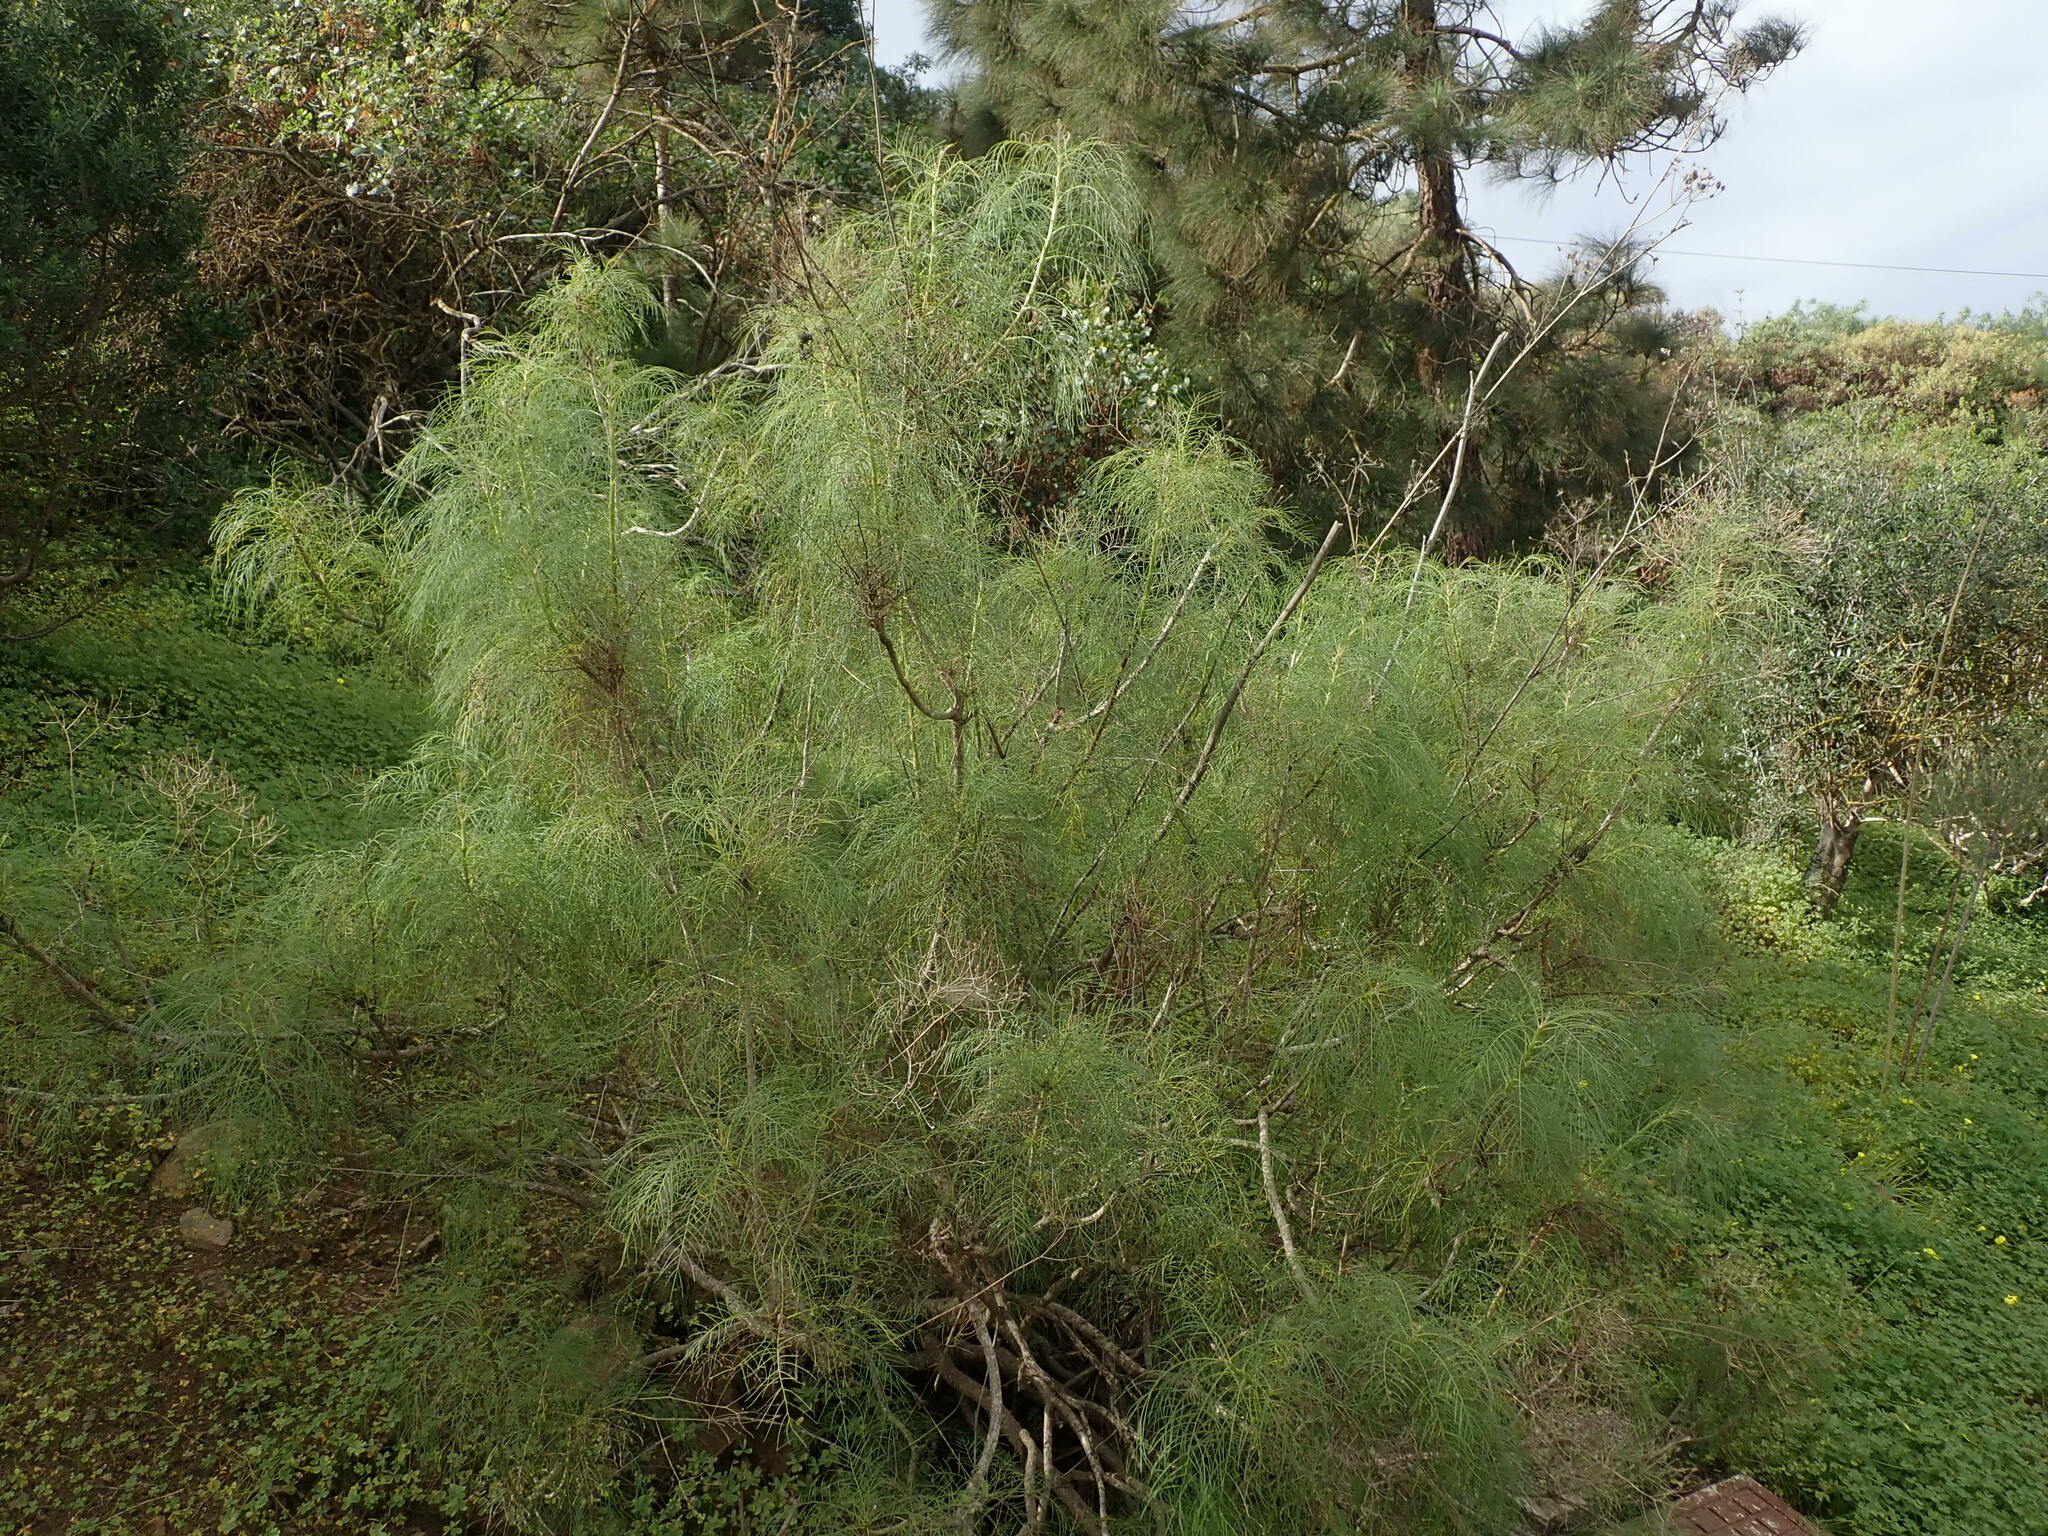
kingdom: Plantae
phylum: Tracheophyta
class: Magnoliopsida
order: Asterales
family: Asteraceae
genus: Sonchus
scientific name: Sonchus leptocephalus
